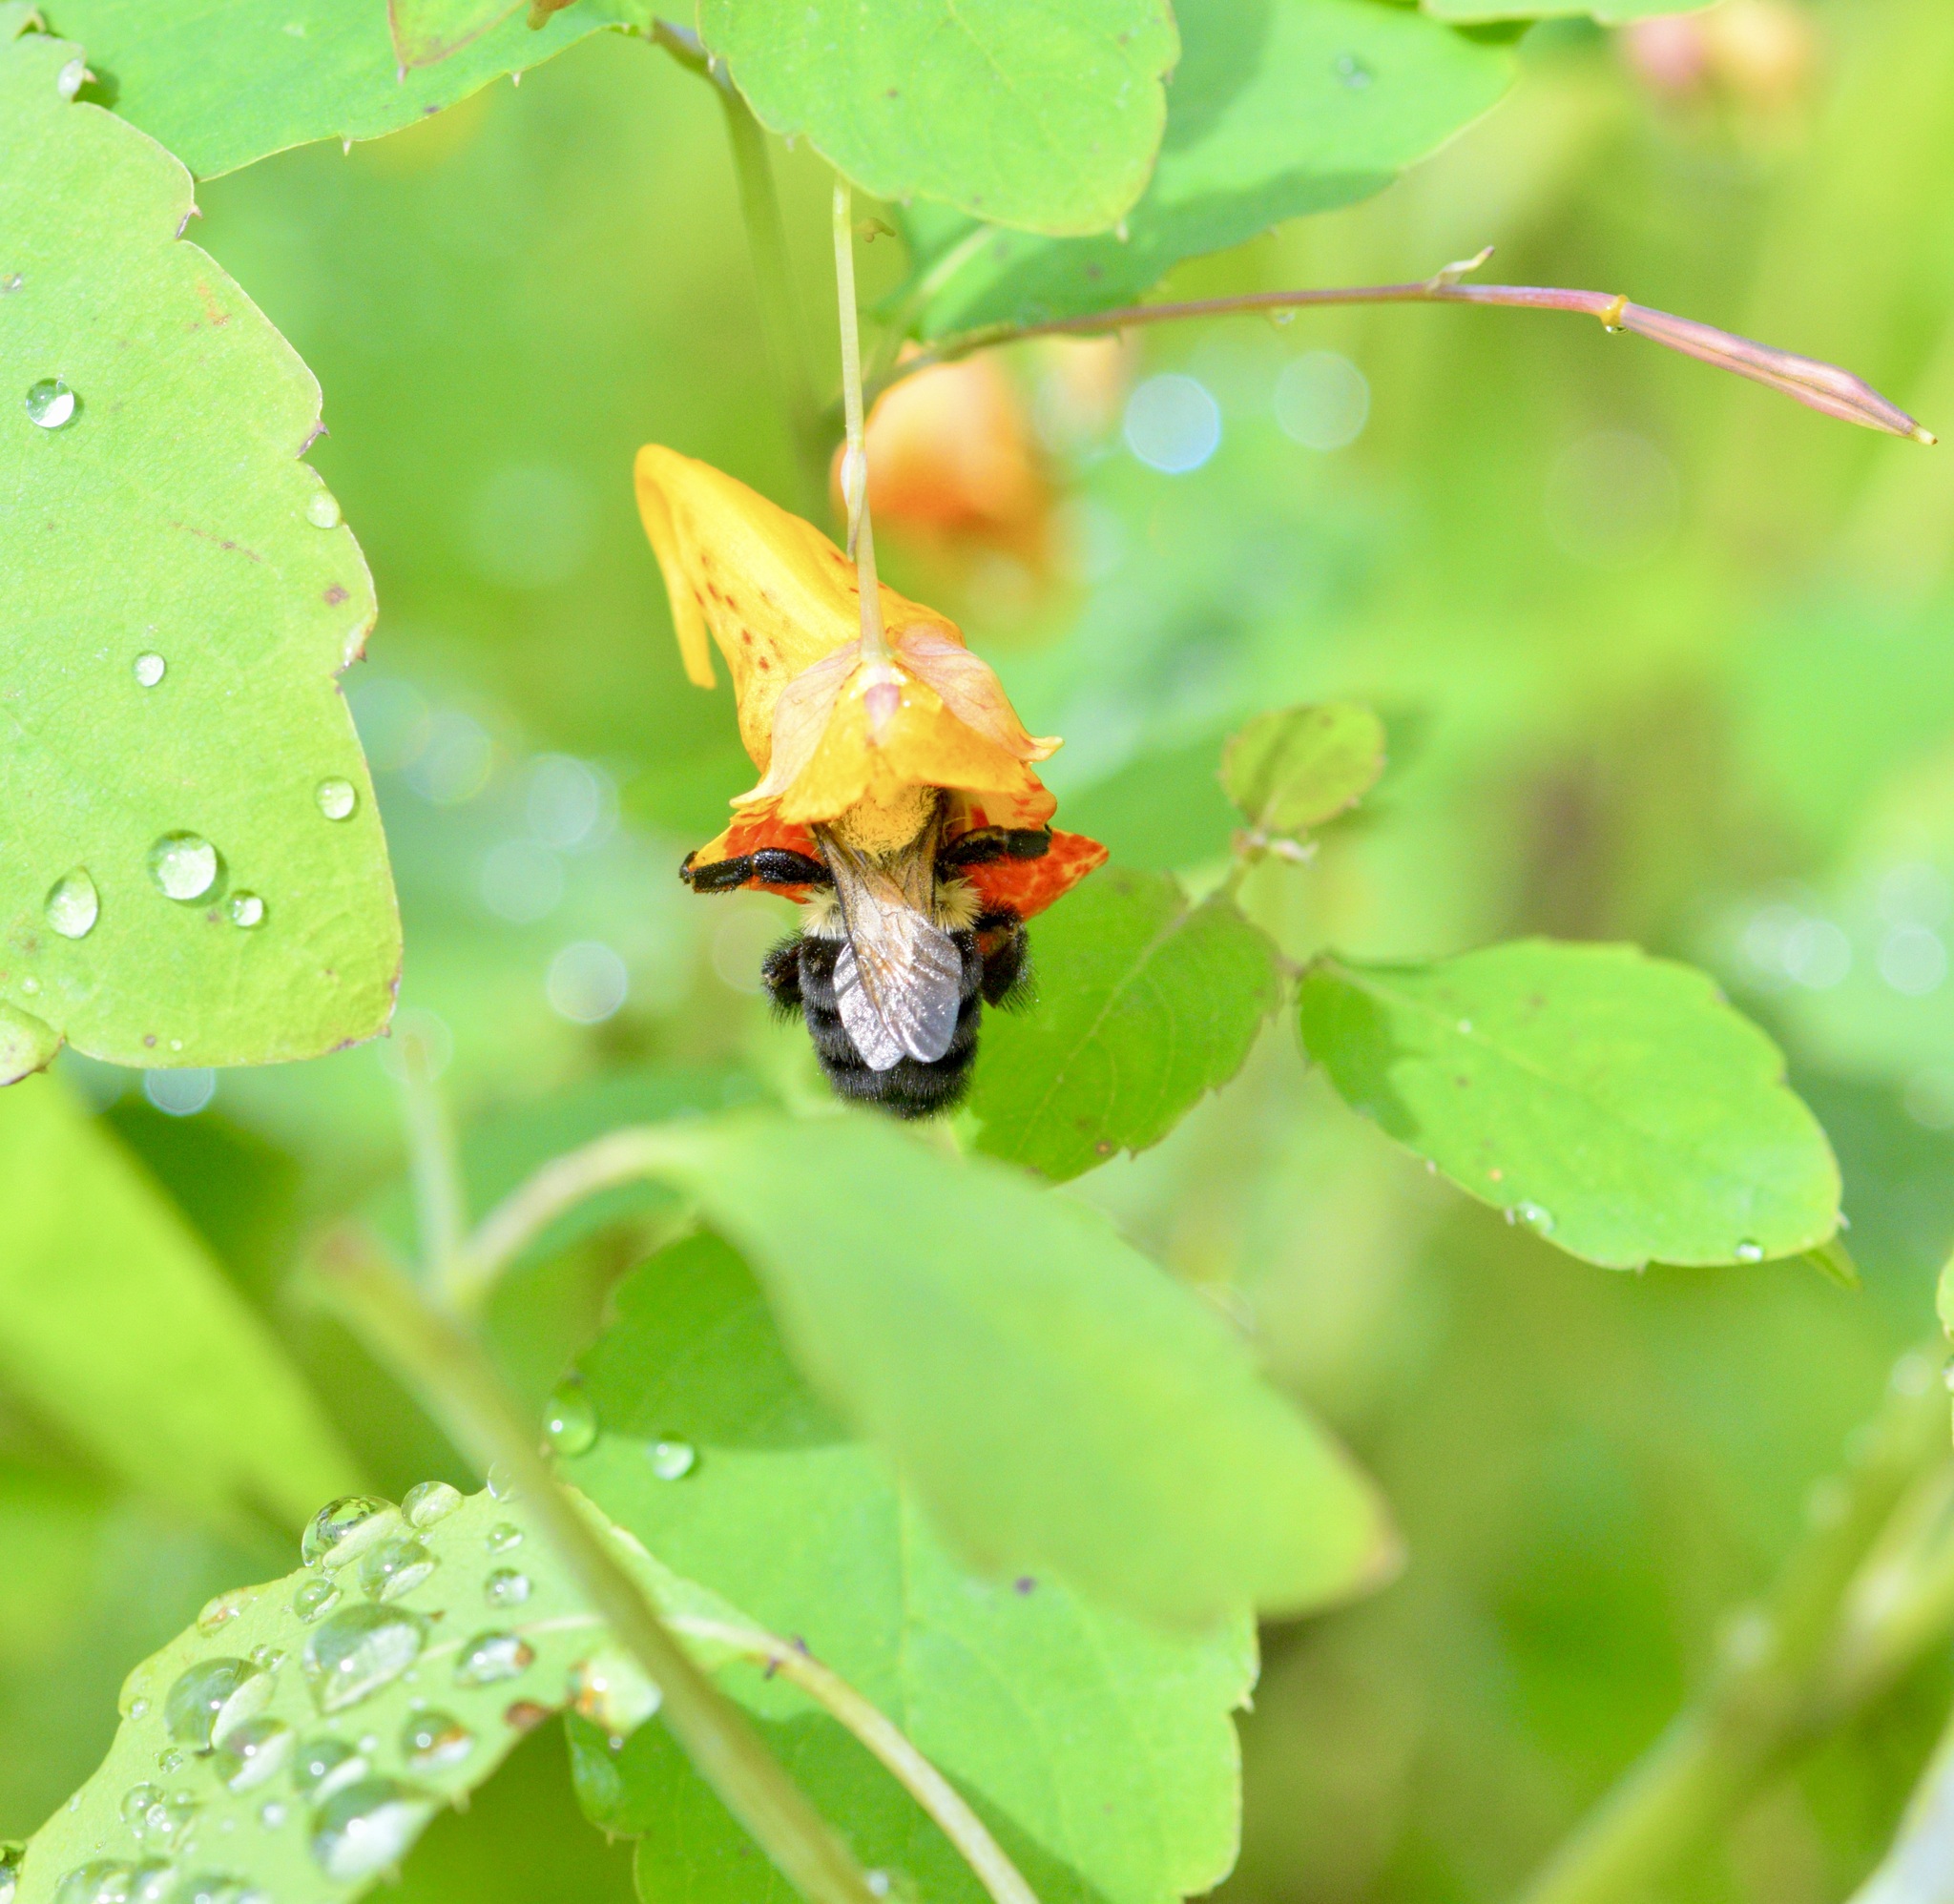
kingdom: Animalia
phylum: Arthropoda
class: Insecta
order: Hymenoptera
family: Apidae
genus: Bombus
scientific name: Bombus impatiens
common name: Common eastern bumble bee
